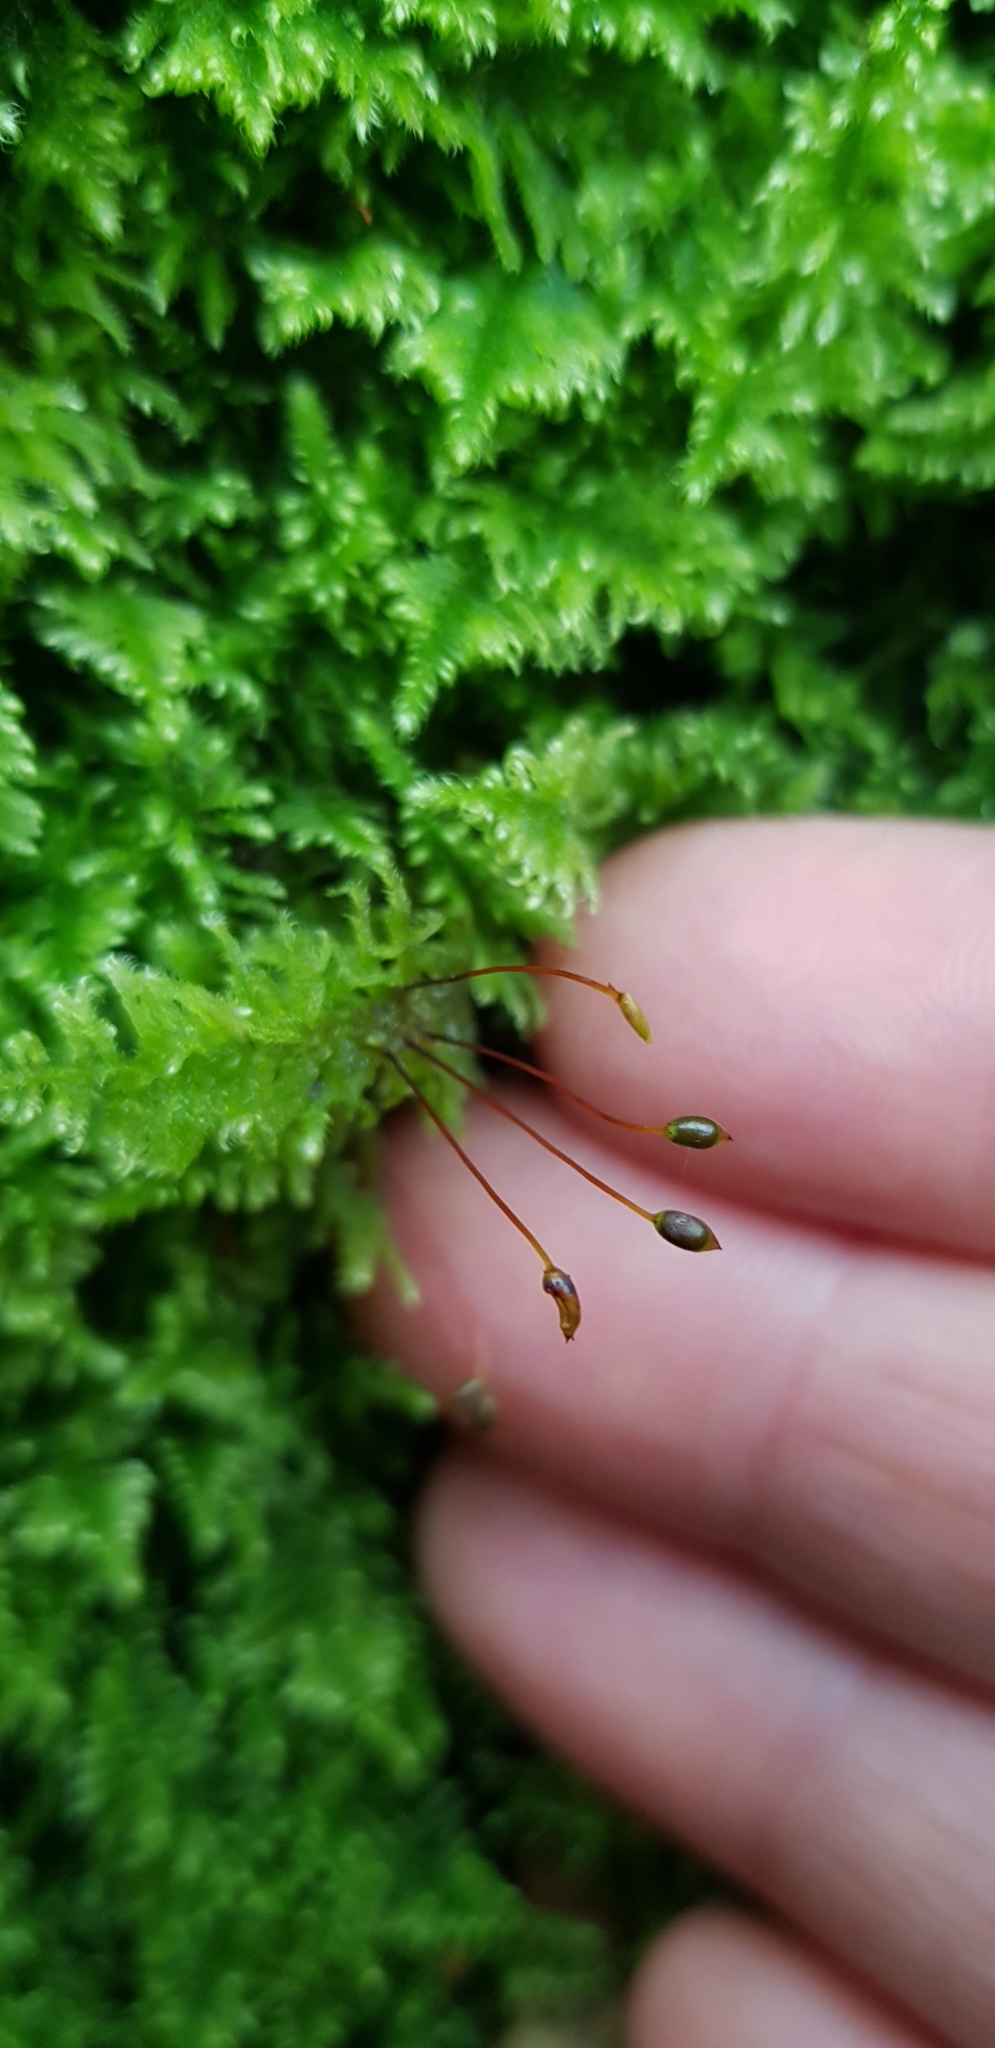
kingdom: Plantae
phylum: Bryophyta
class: Bryopsida
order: Hypnales
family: Myuriaceae
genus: Ctenidium
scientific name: Ctenidium molluscum
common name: Chalk comb-moss
